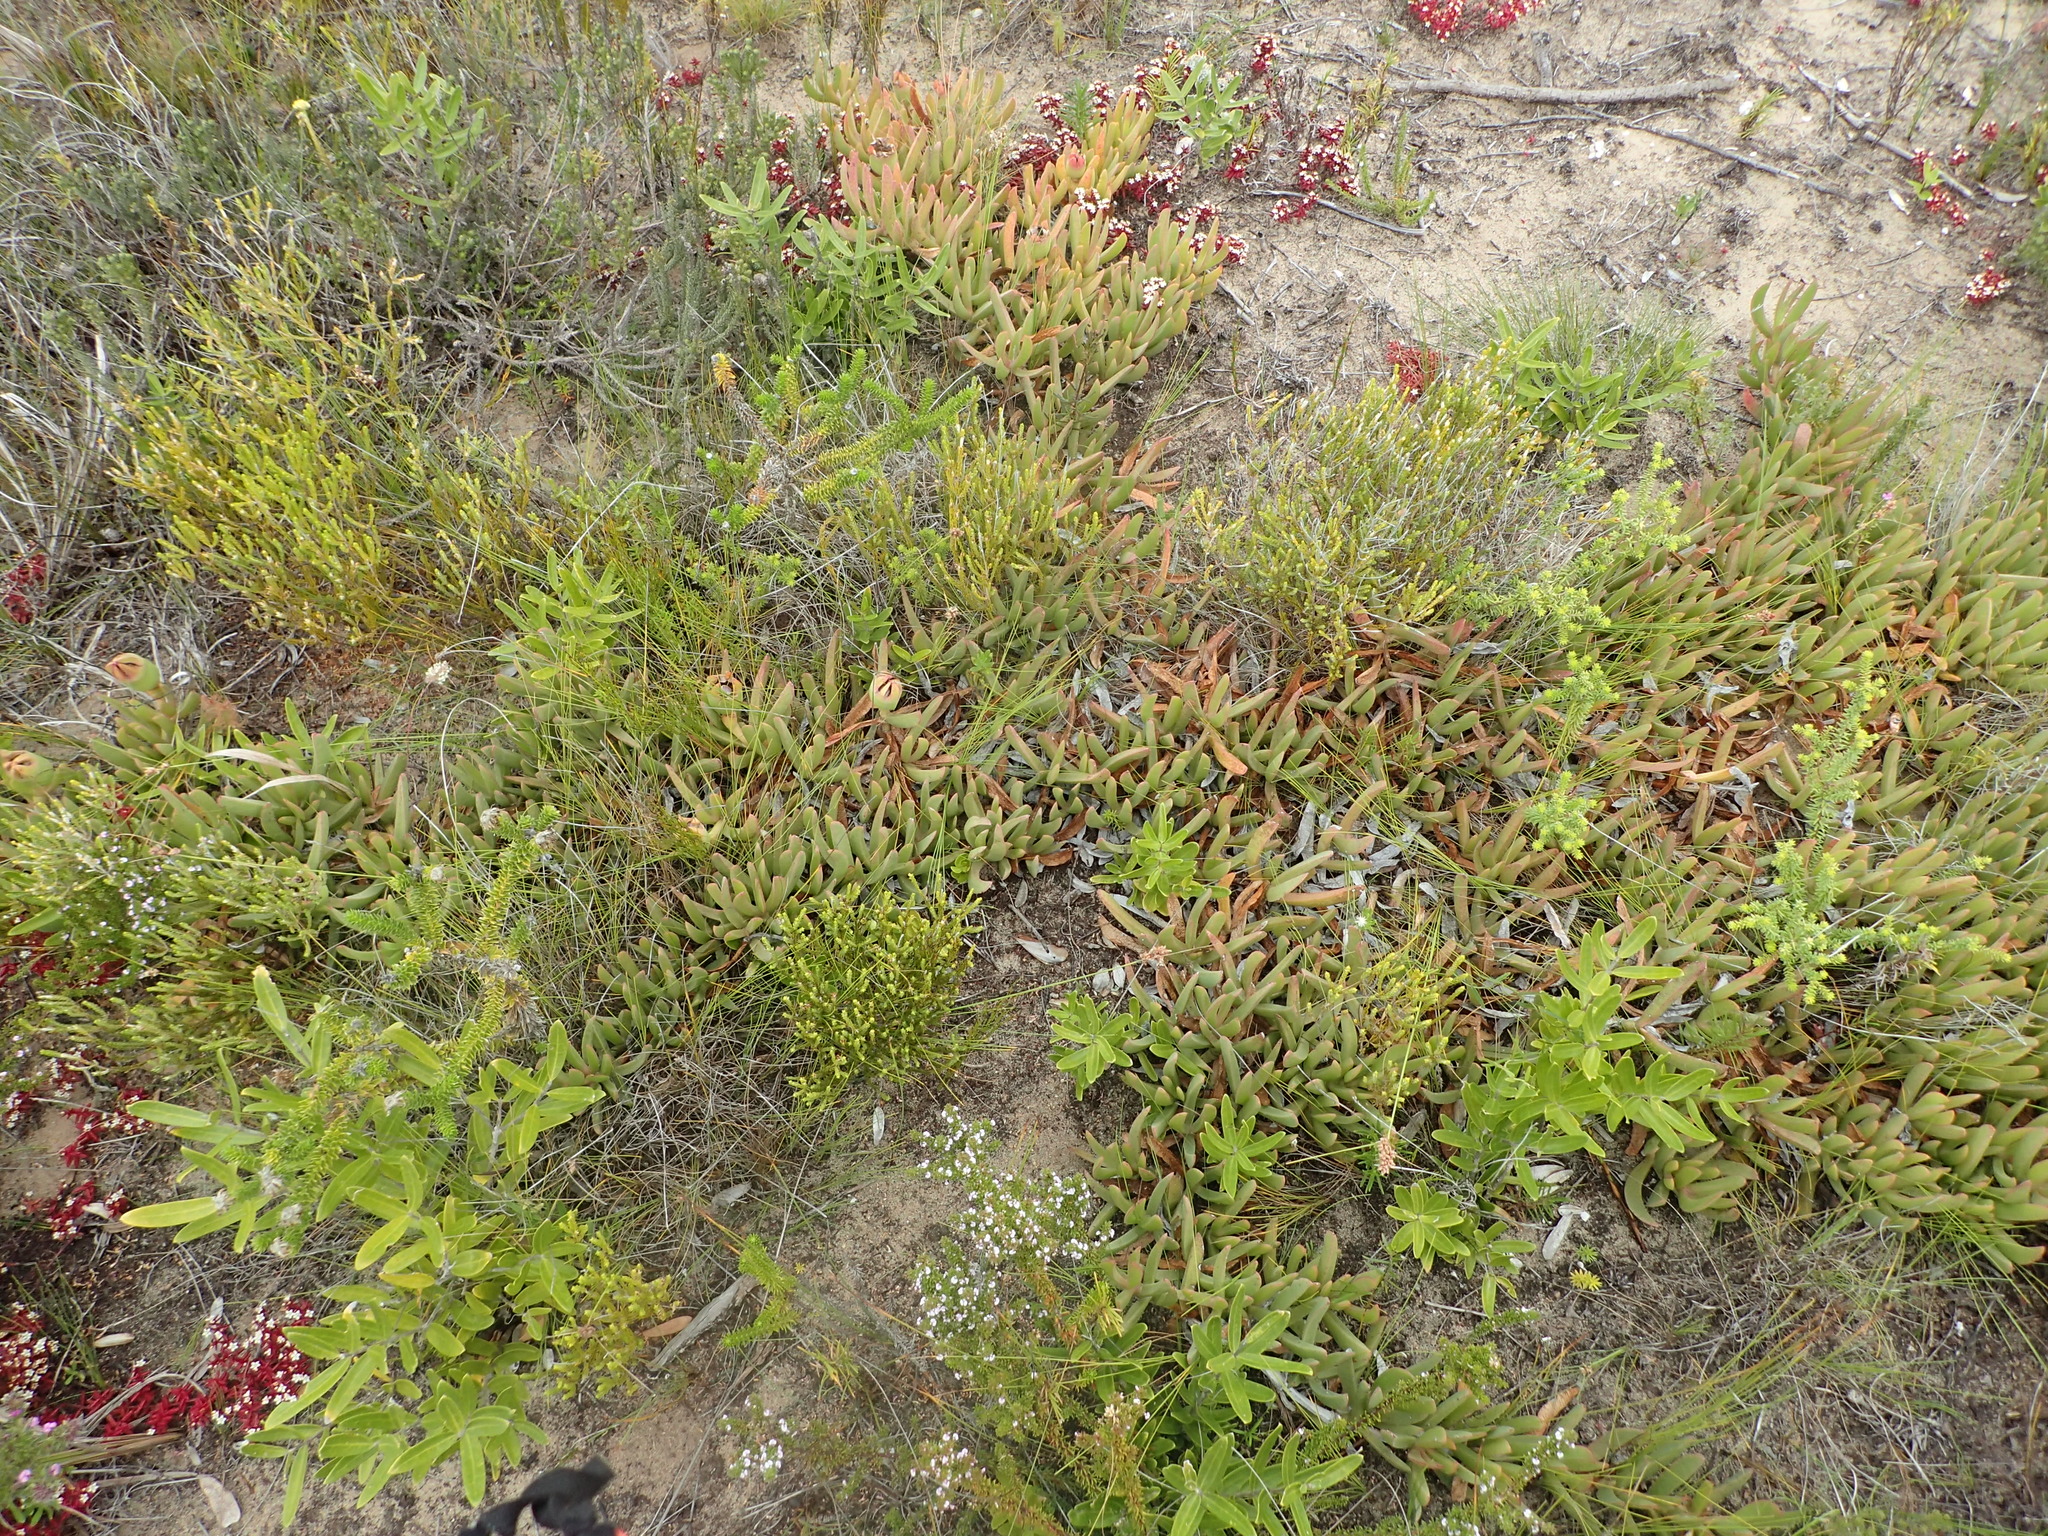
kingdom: Plantae
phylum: Tracheophyta
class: Magnoliopsida
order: Caryophyllales
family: Aizoaceae
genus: Carpobrotus
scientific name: Carpobrotus deliciosus
